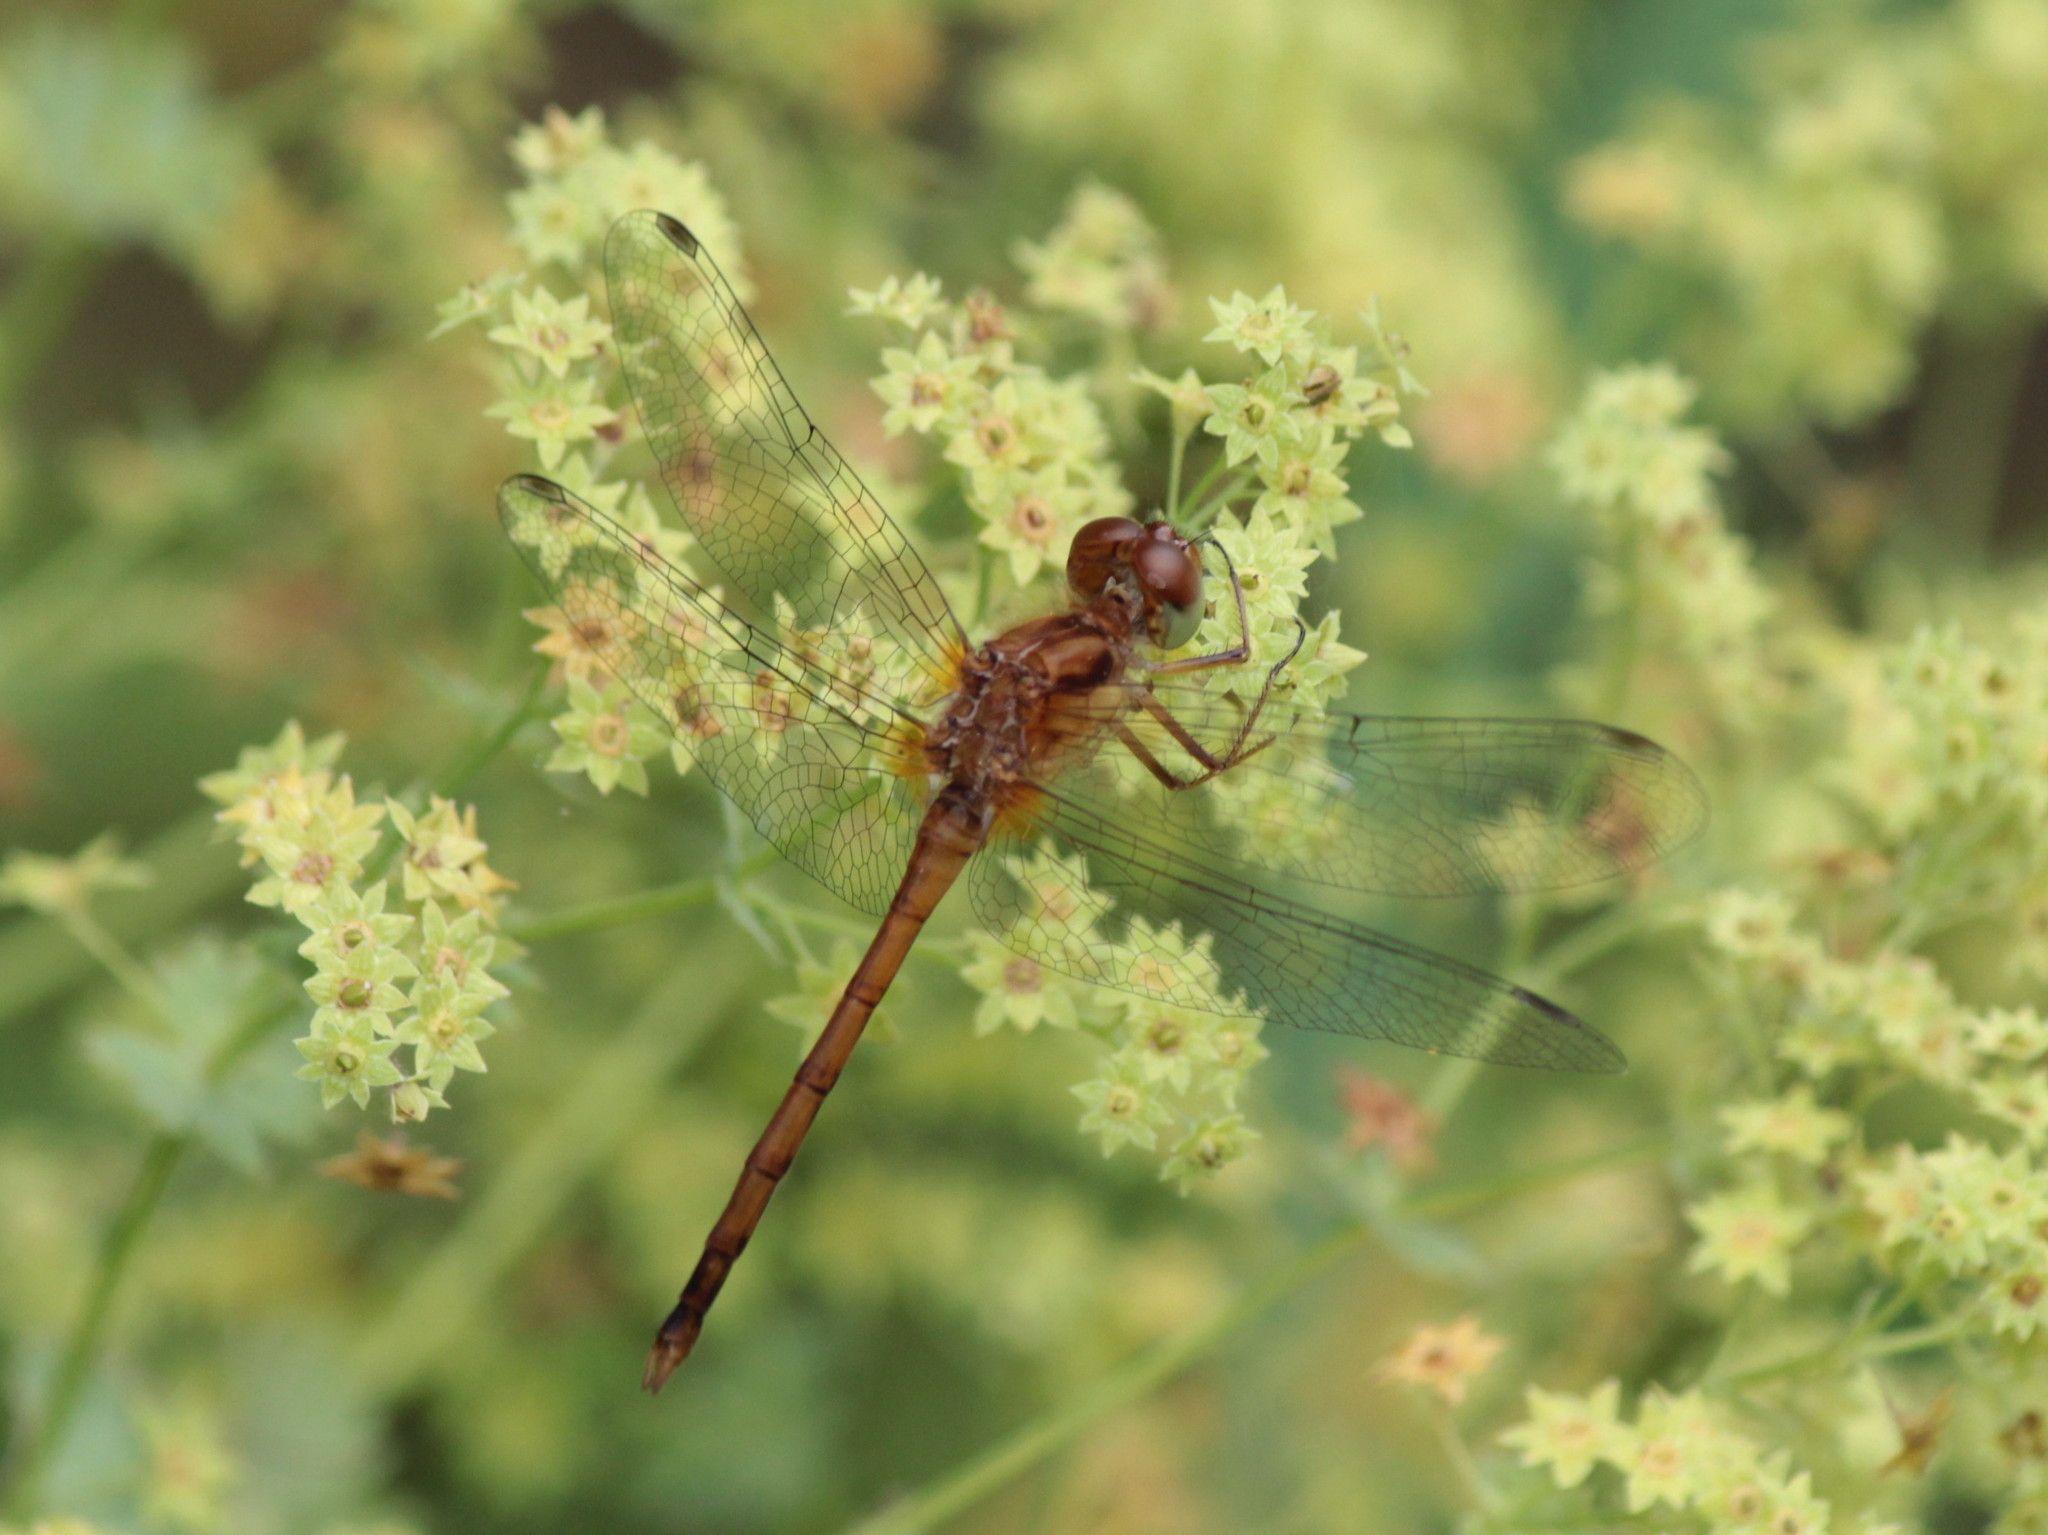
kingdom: Animalia
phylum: Arthropoda
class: Insecta
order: Odonata
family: Libellulidae
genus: Sympetrum
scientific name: Sympetrum vicinum
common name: Autumn meadowhawk
